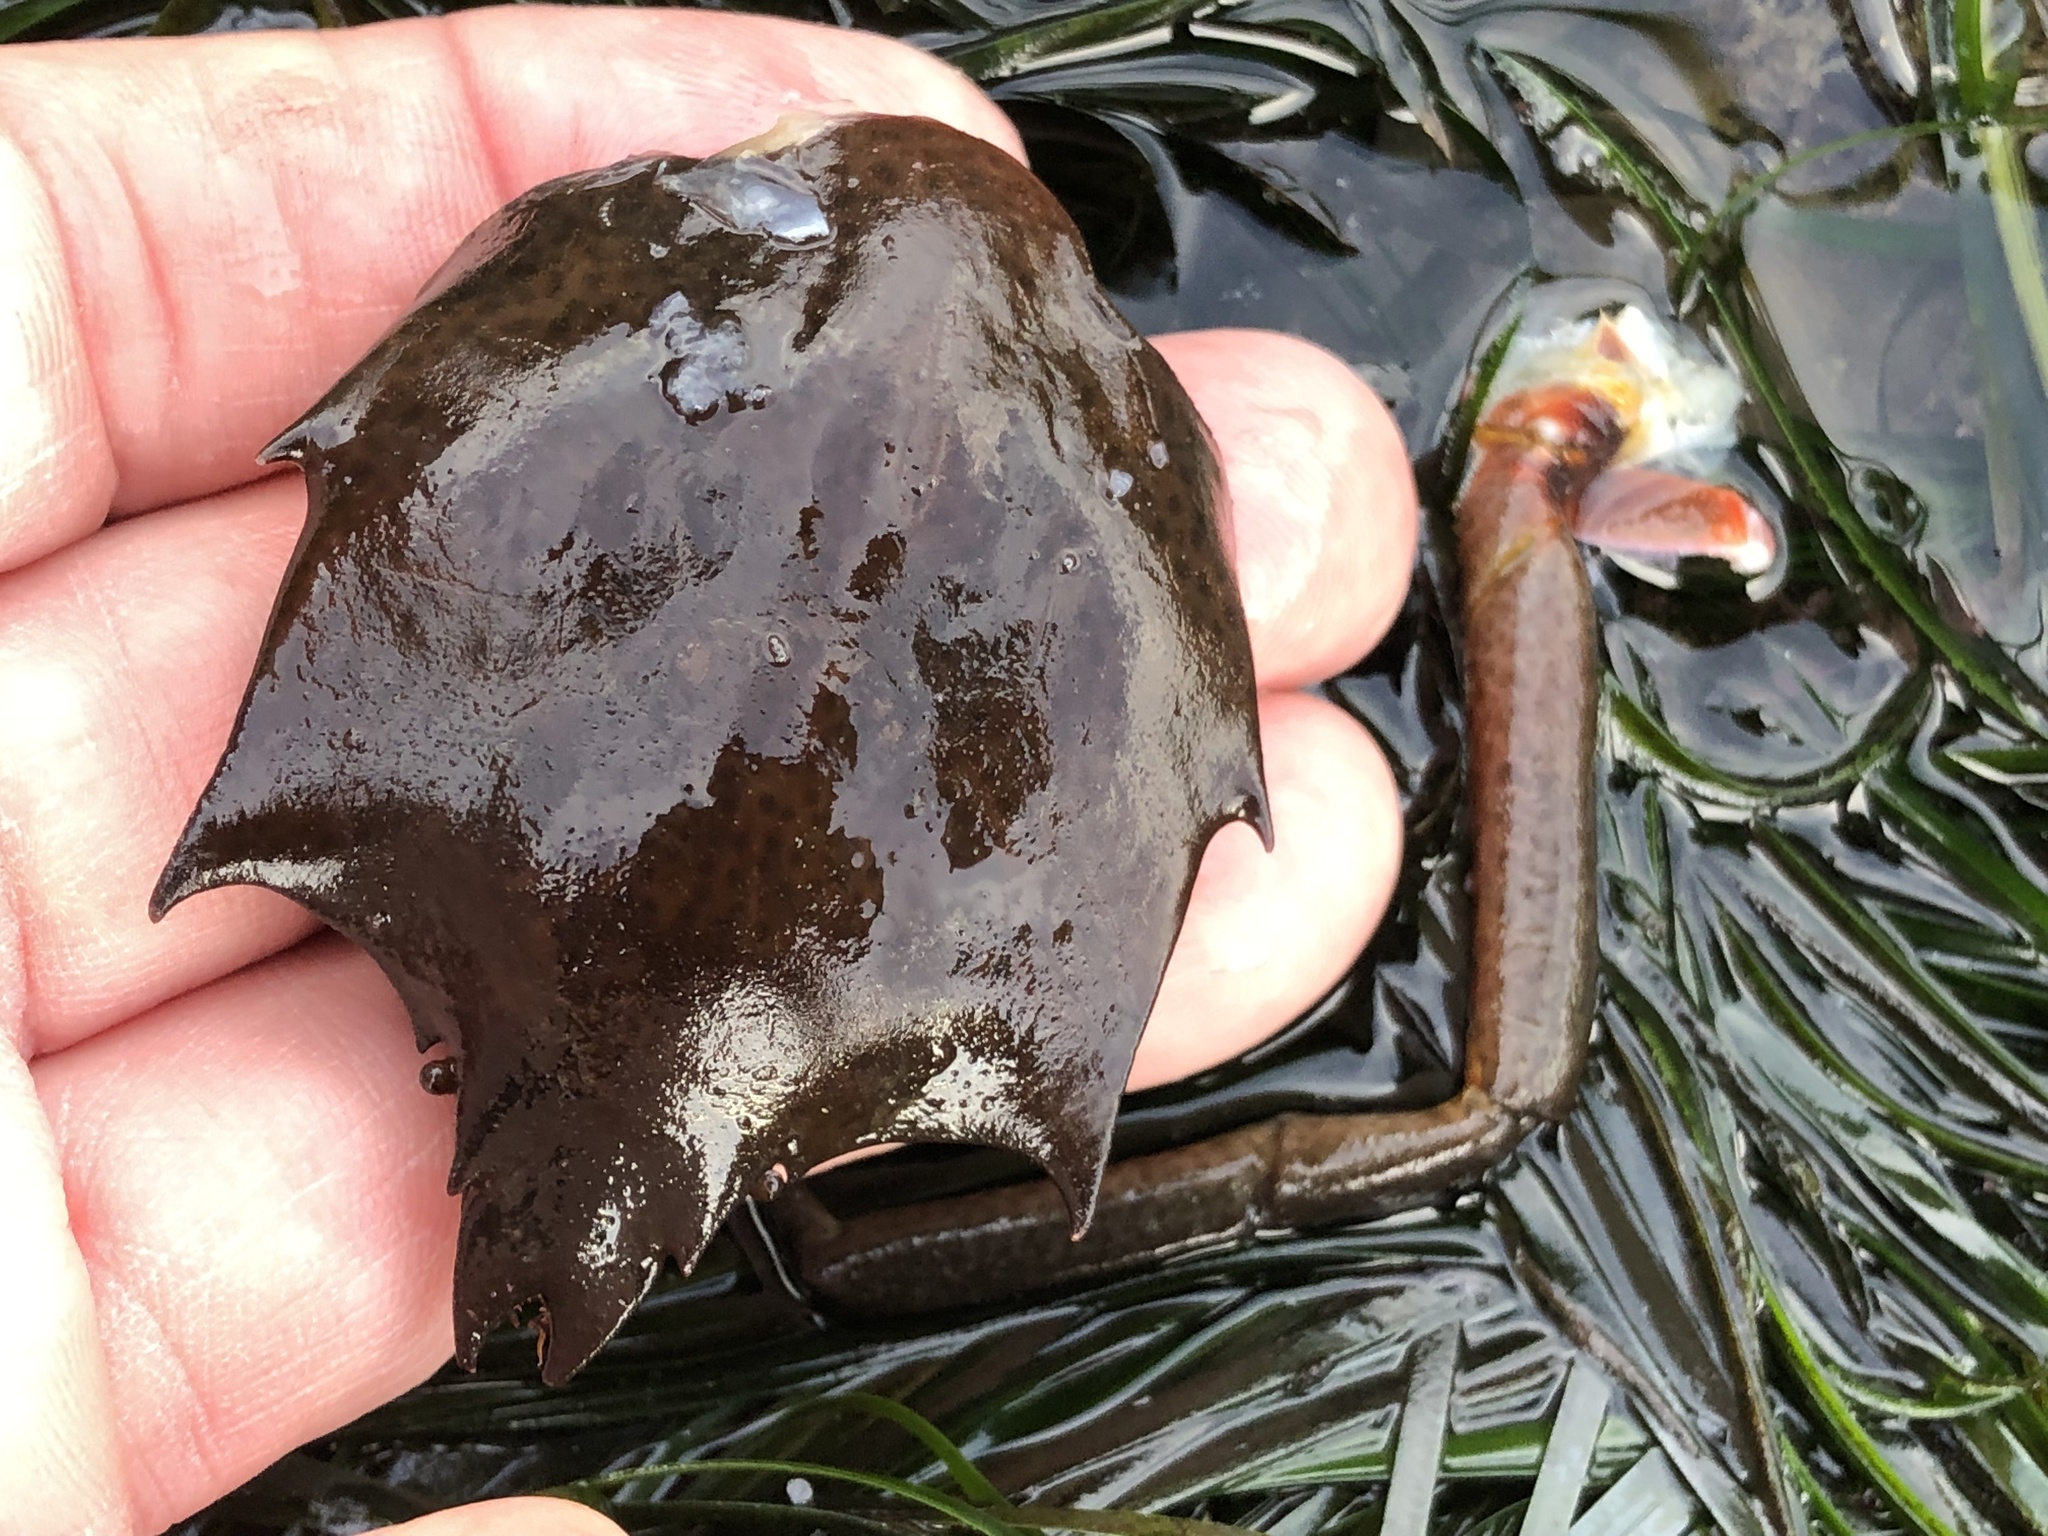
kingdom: Animalia
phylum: Arthropoda
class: Malacostraca
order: Decapoda
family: Epialtidae
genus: Pugettia
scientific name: Pugettia producta
